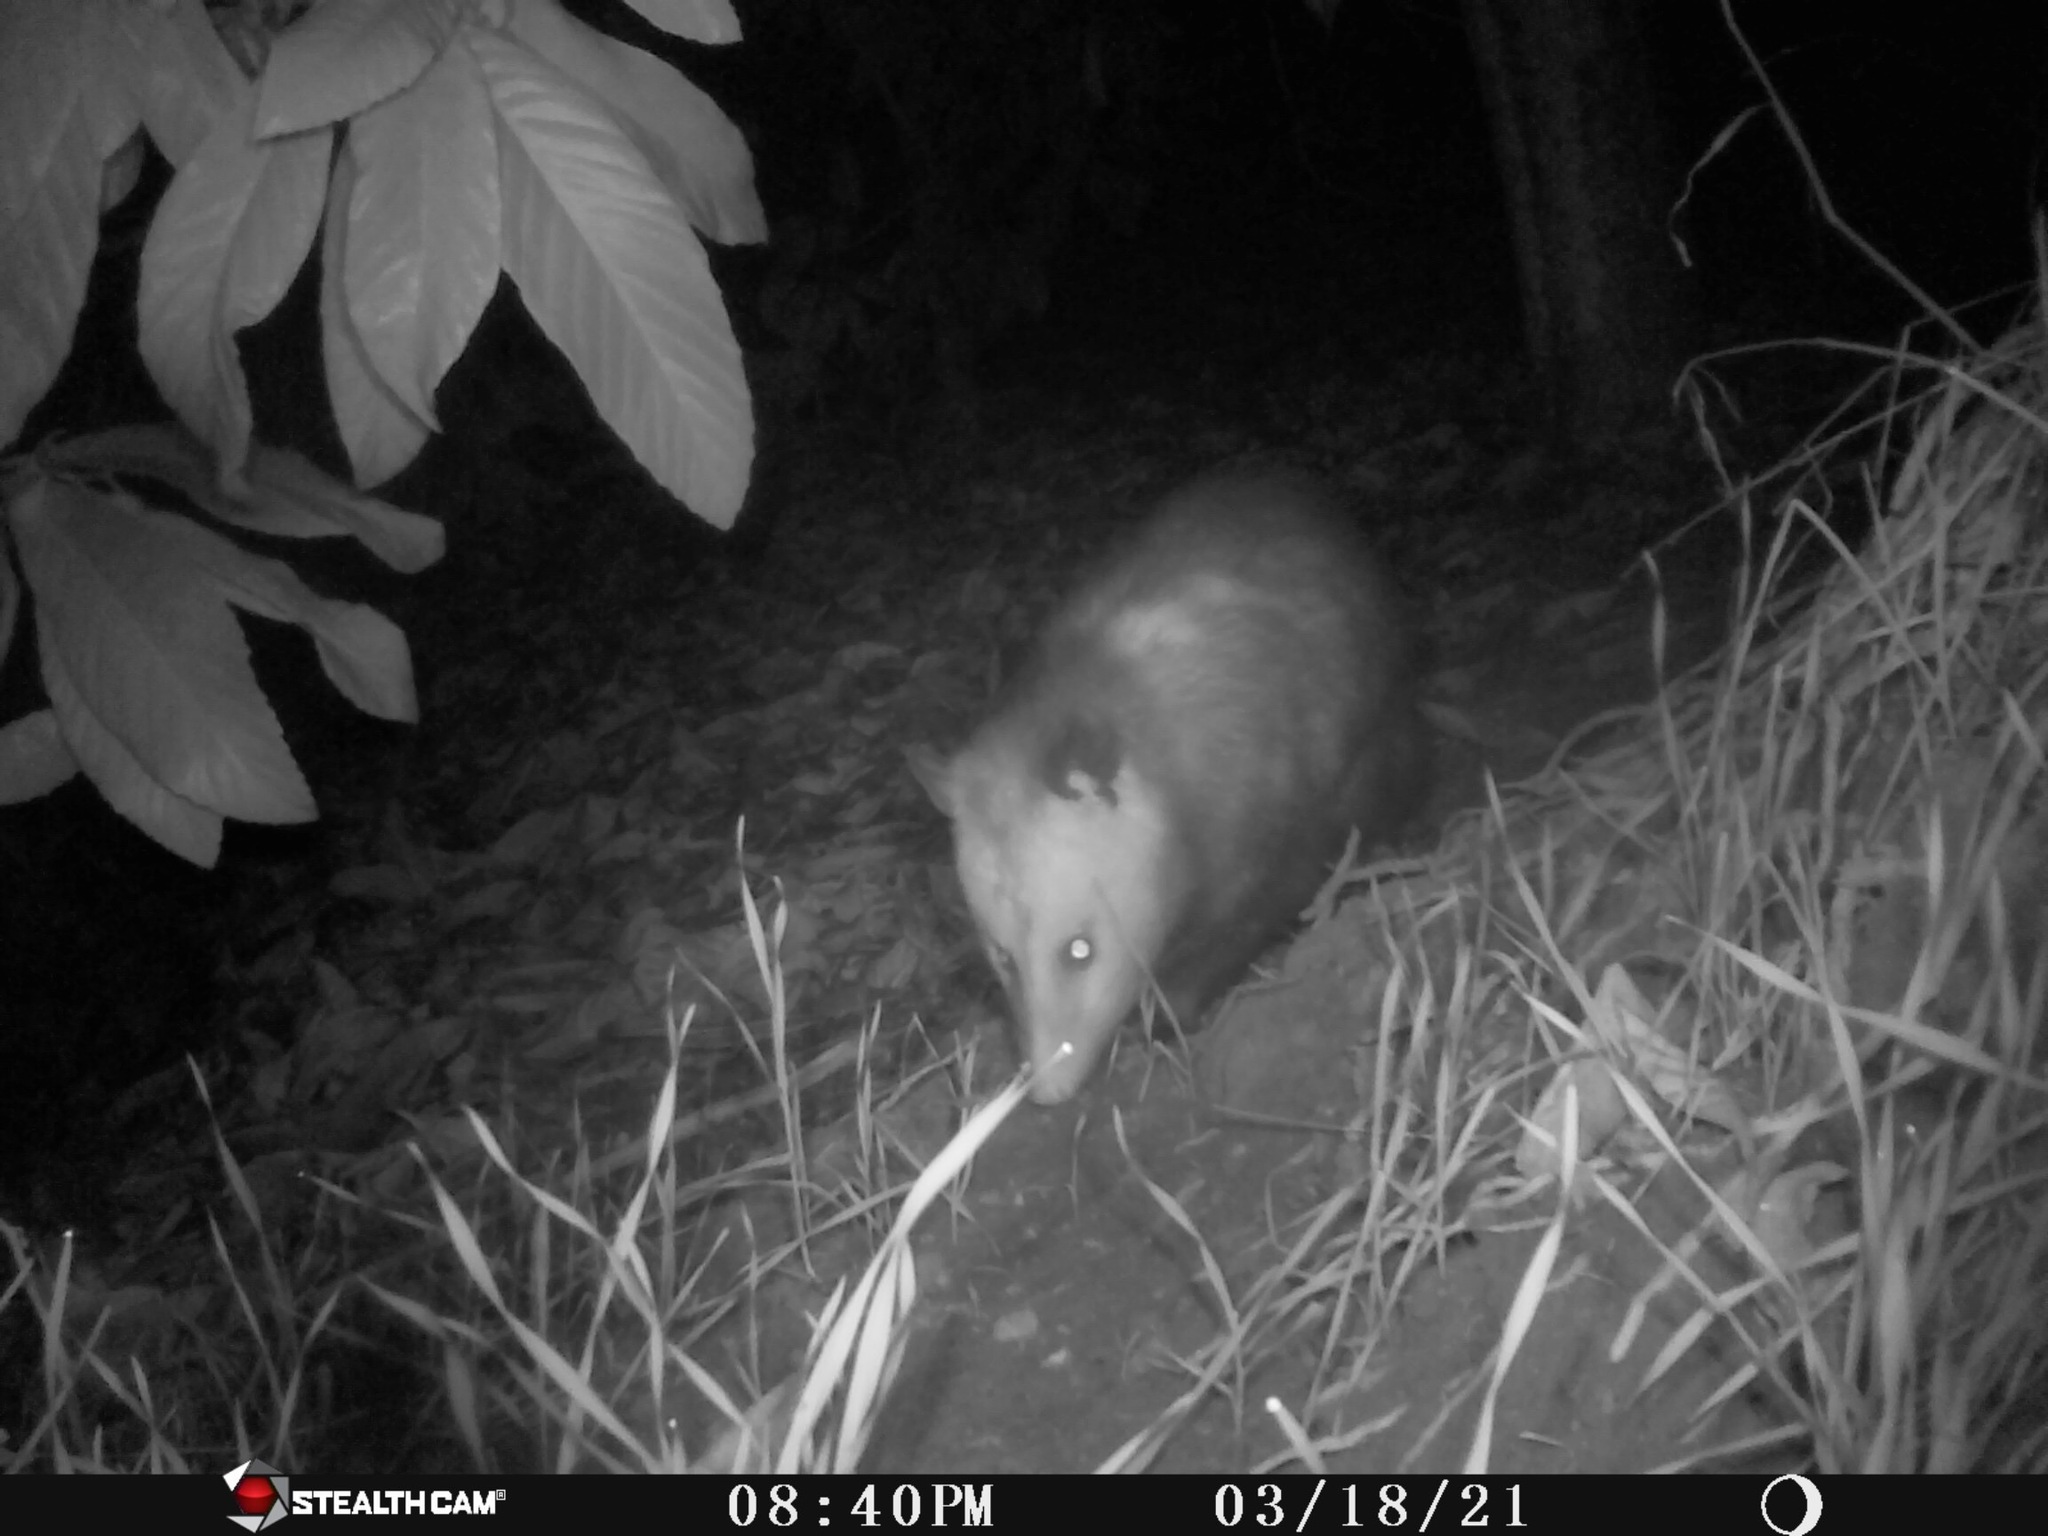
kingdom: Animalia
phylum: Chordata
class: Mammalia
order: Didelphimorphia
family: Didelphidae
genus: Didelphis
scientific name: Didelphis virginiana
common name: Virginia opossum
